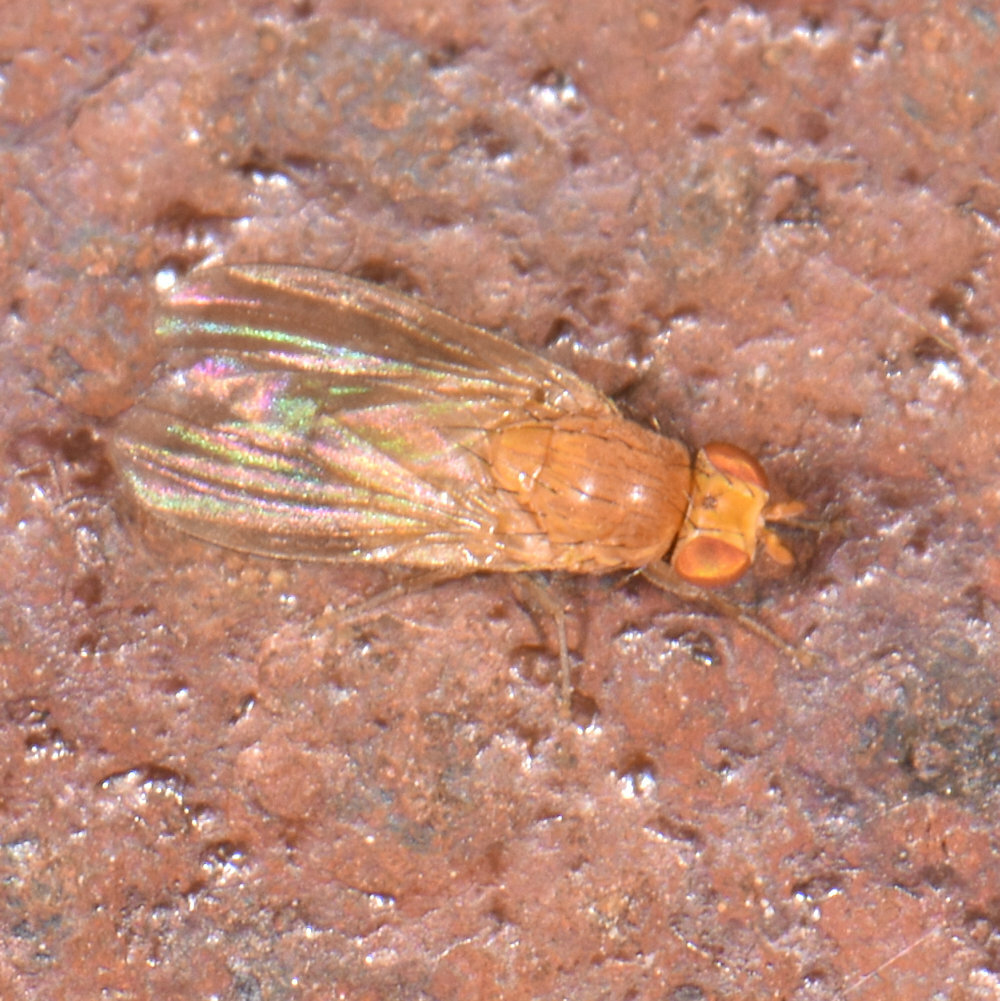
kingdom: Animalia
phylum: Arthropoda
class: Insecta
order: Diptera
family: Lauxaniidae
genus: Poecilominettia
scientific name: Poecilominettia puncticeps
